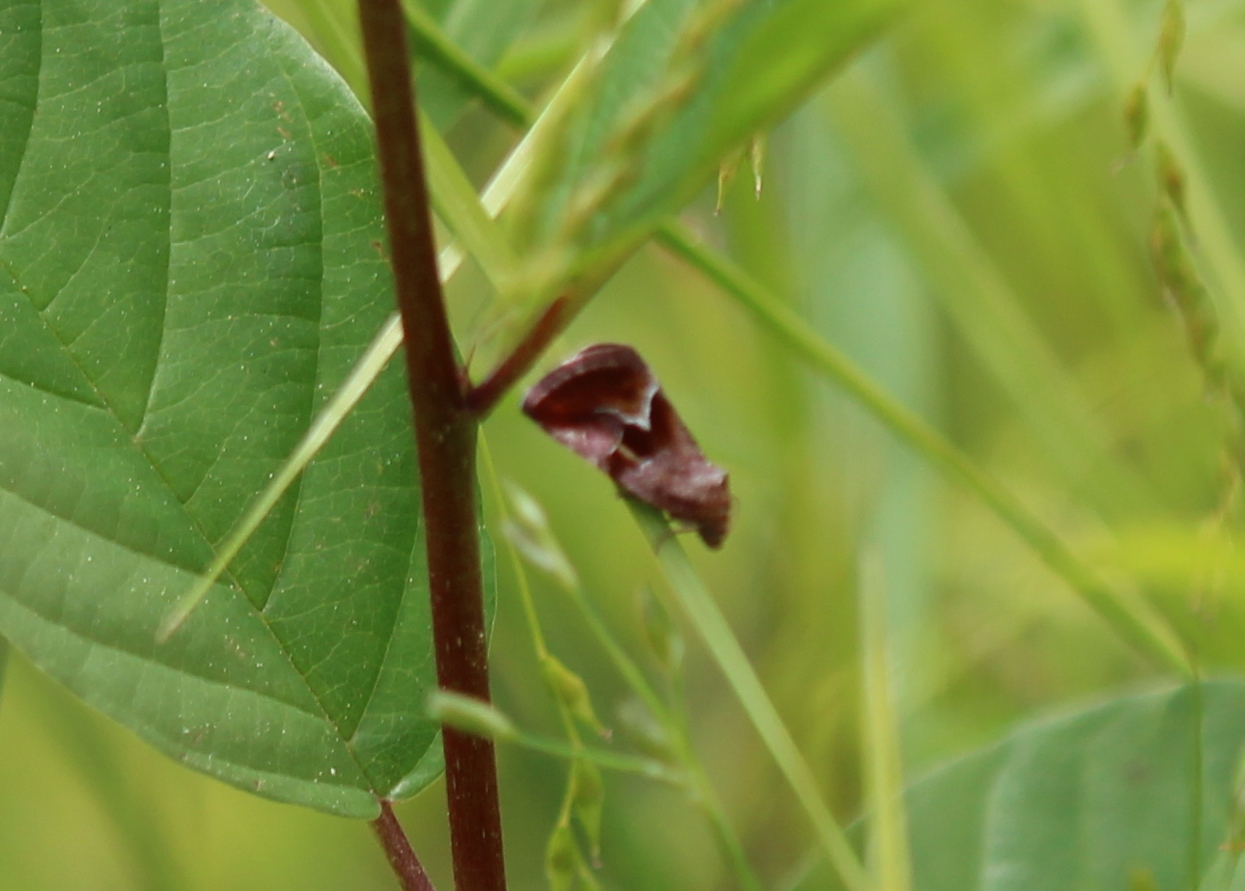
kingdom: Animalia
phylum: Arthropoda
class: Insecta
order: Lepidoptera
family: Noctuidae
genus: Deltote
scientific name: Deltote bellicula
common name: Bog glyph
